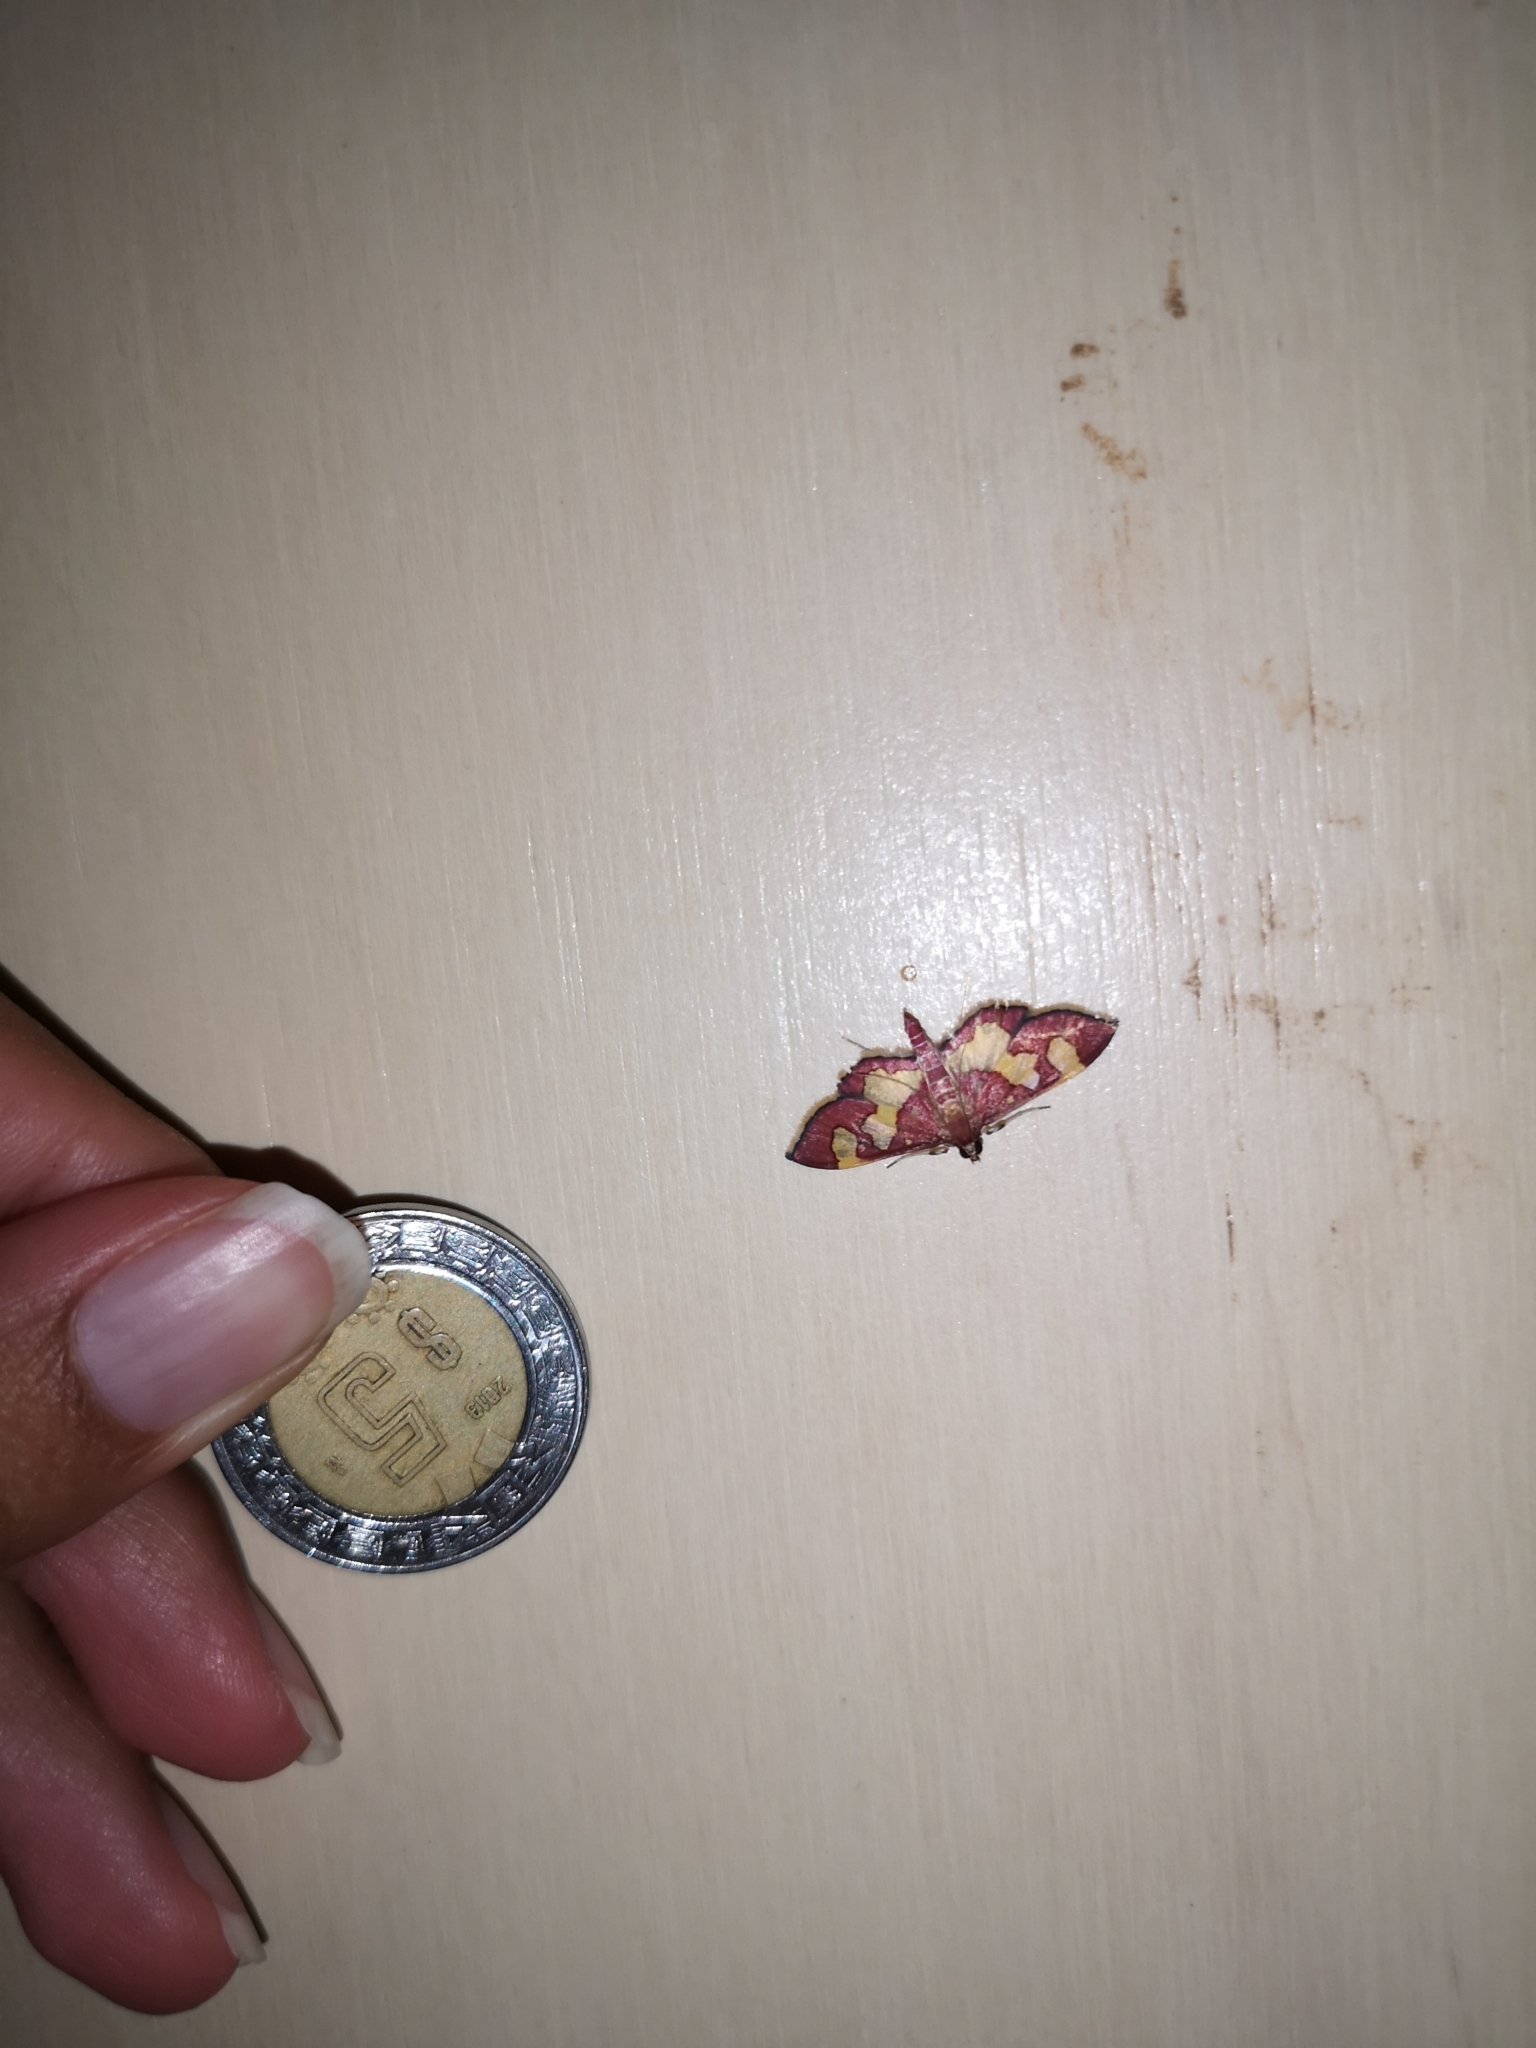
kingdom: Animalia
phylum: Arthropoda
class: Insecta
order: Lepidoptera
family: Crambidae
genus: Colomychus
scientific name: Colomychus talis
